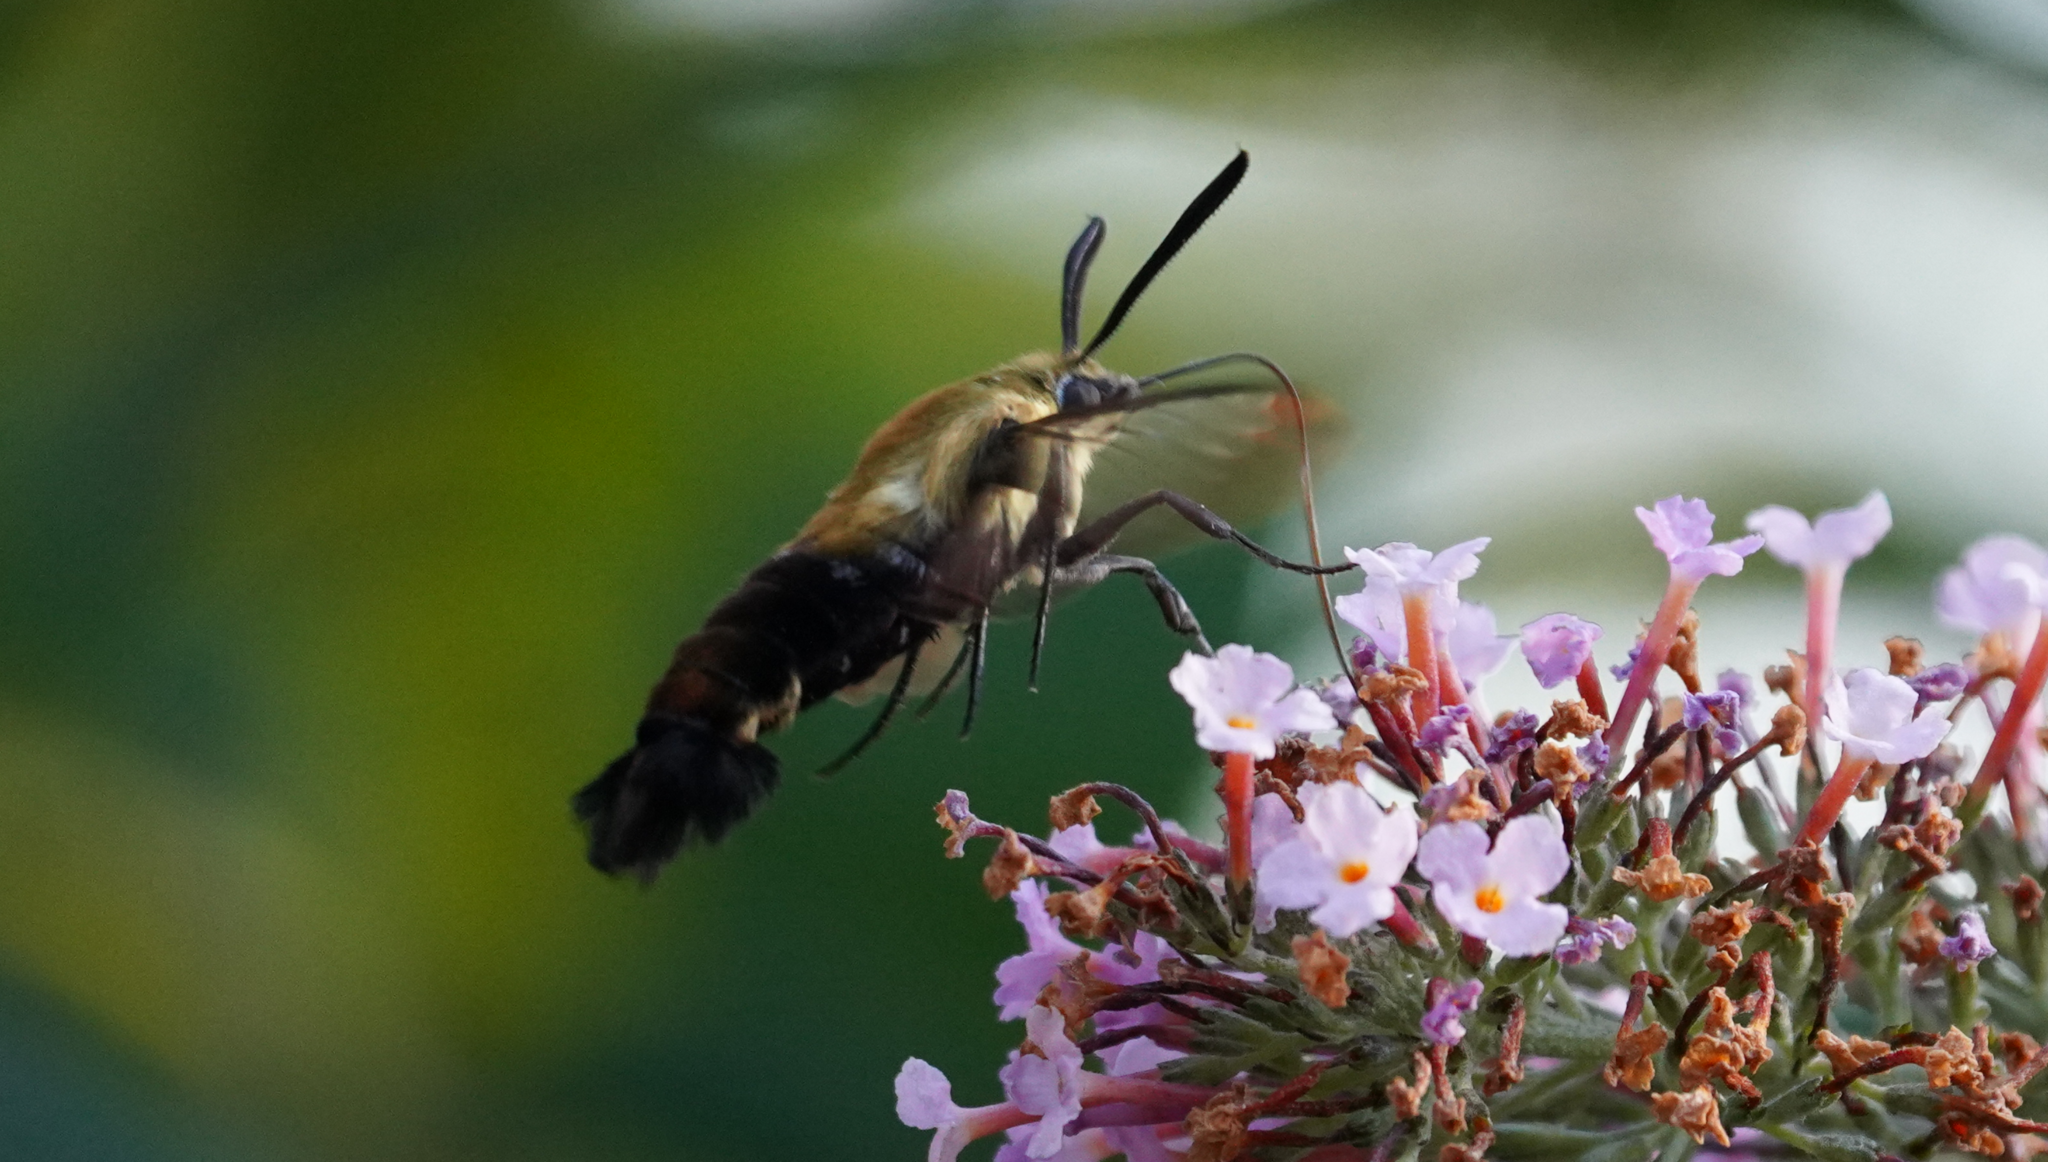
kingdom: Animalia
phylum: Arthropoda
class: Insecta
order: Lepidoptera
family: Sphingidae
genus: Hemaris
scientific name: Hemaris diffinis
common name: Bumblebee moth
